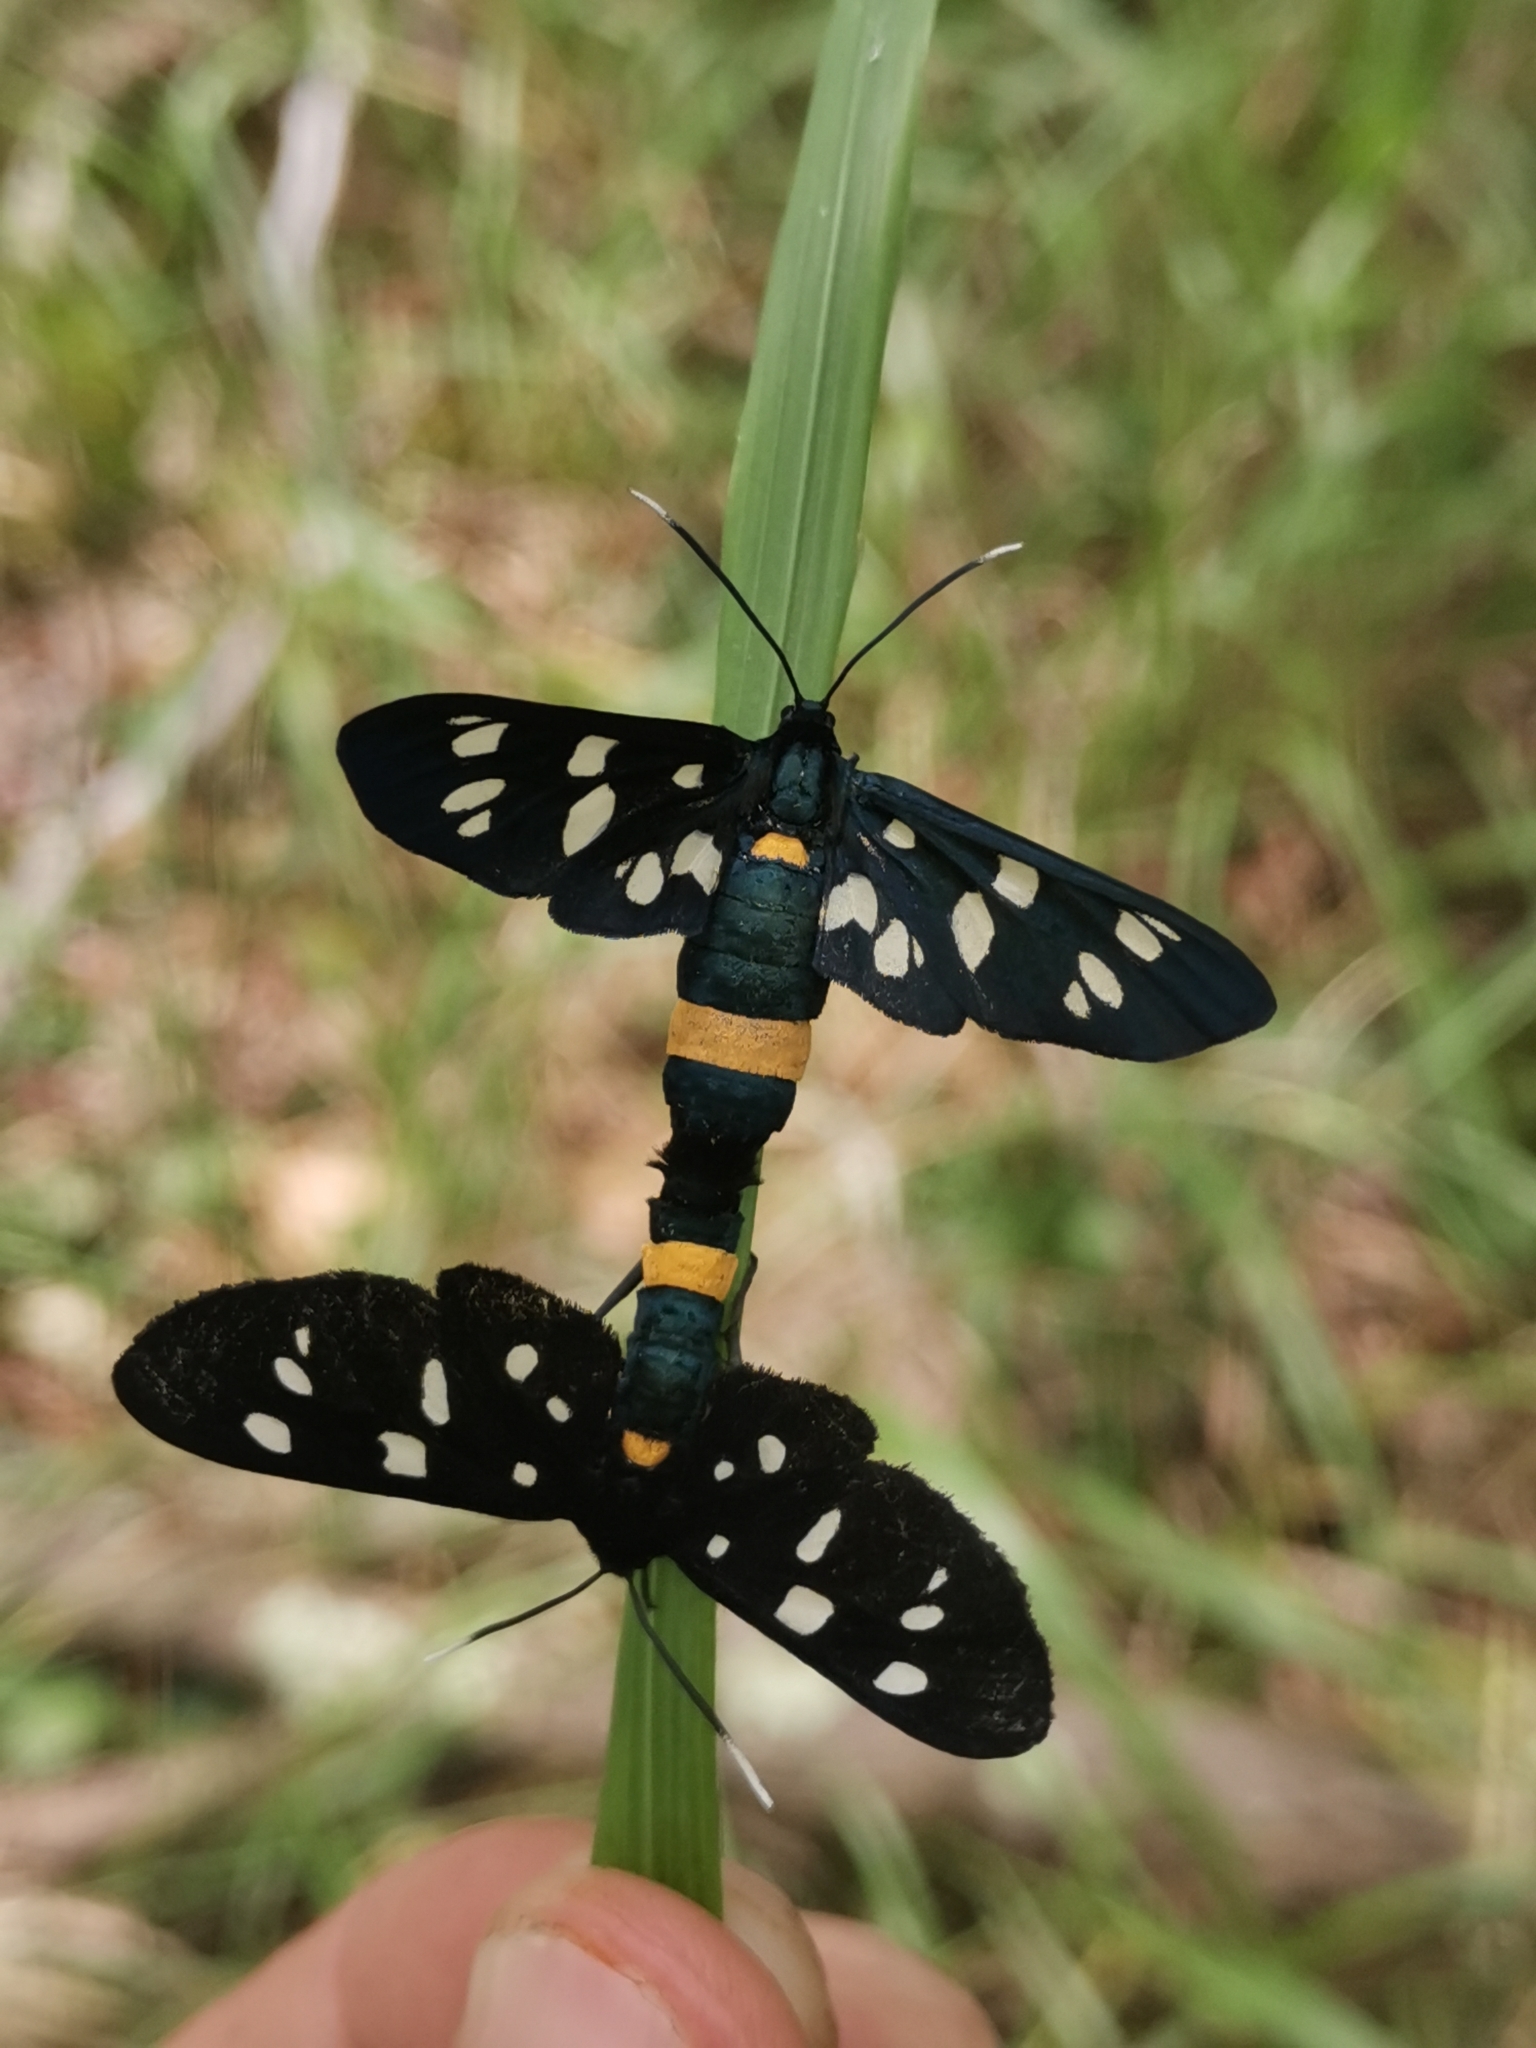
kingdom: Animalia
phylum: Arthropoda
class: Insecta
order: Lepidoptera
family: Erebidae
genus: Amata
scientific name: Amata phegea
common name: Nine-spotted
